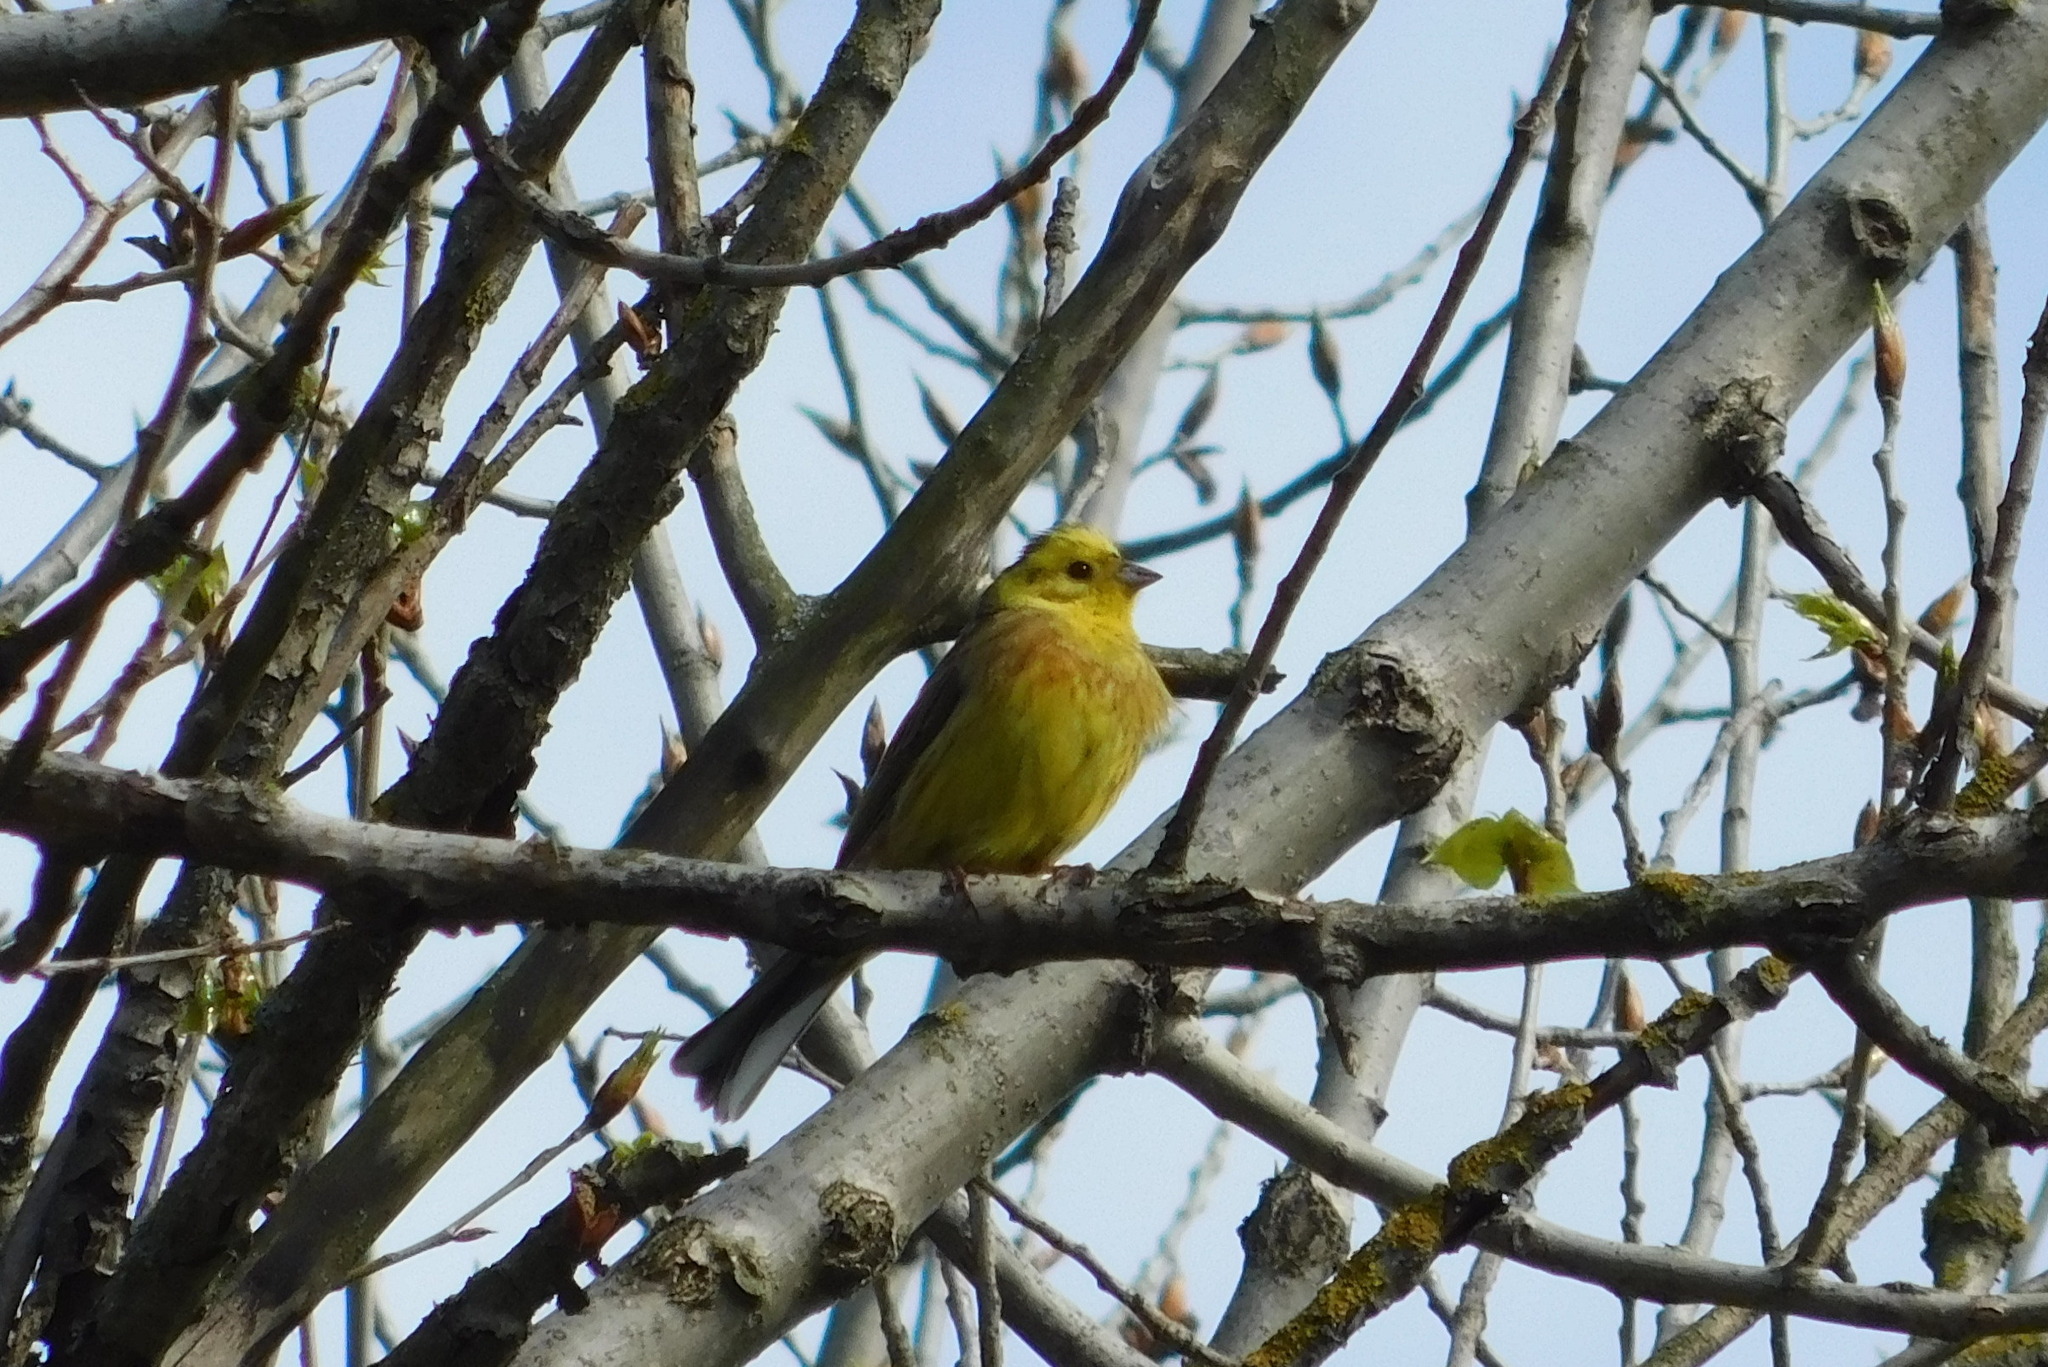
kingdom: Animalia
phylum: Chordata
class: Aves
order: Passeriformes
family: Emberizidae
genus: Emberiza
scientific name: Emberiza citrinella
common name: Yellowhammer
